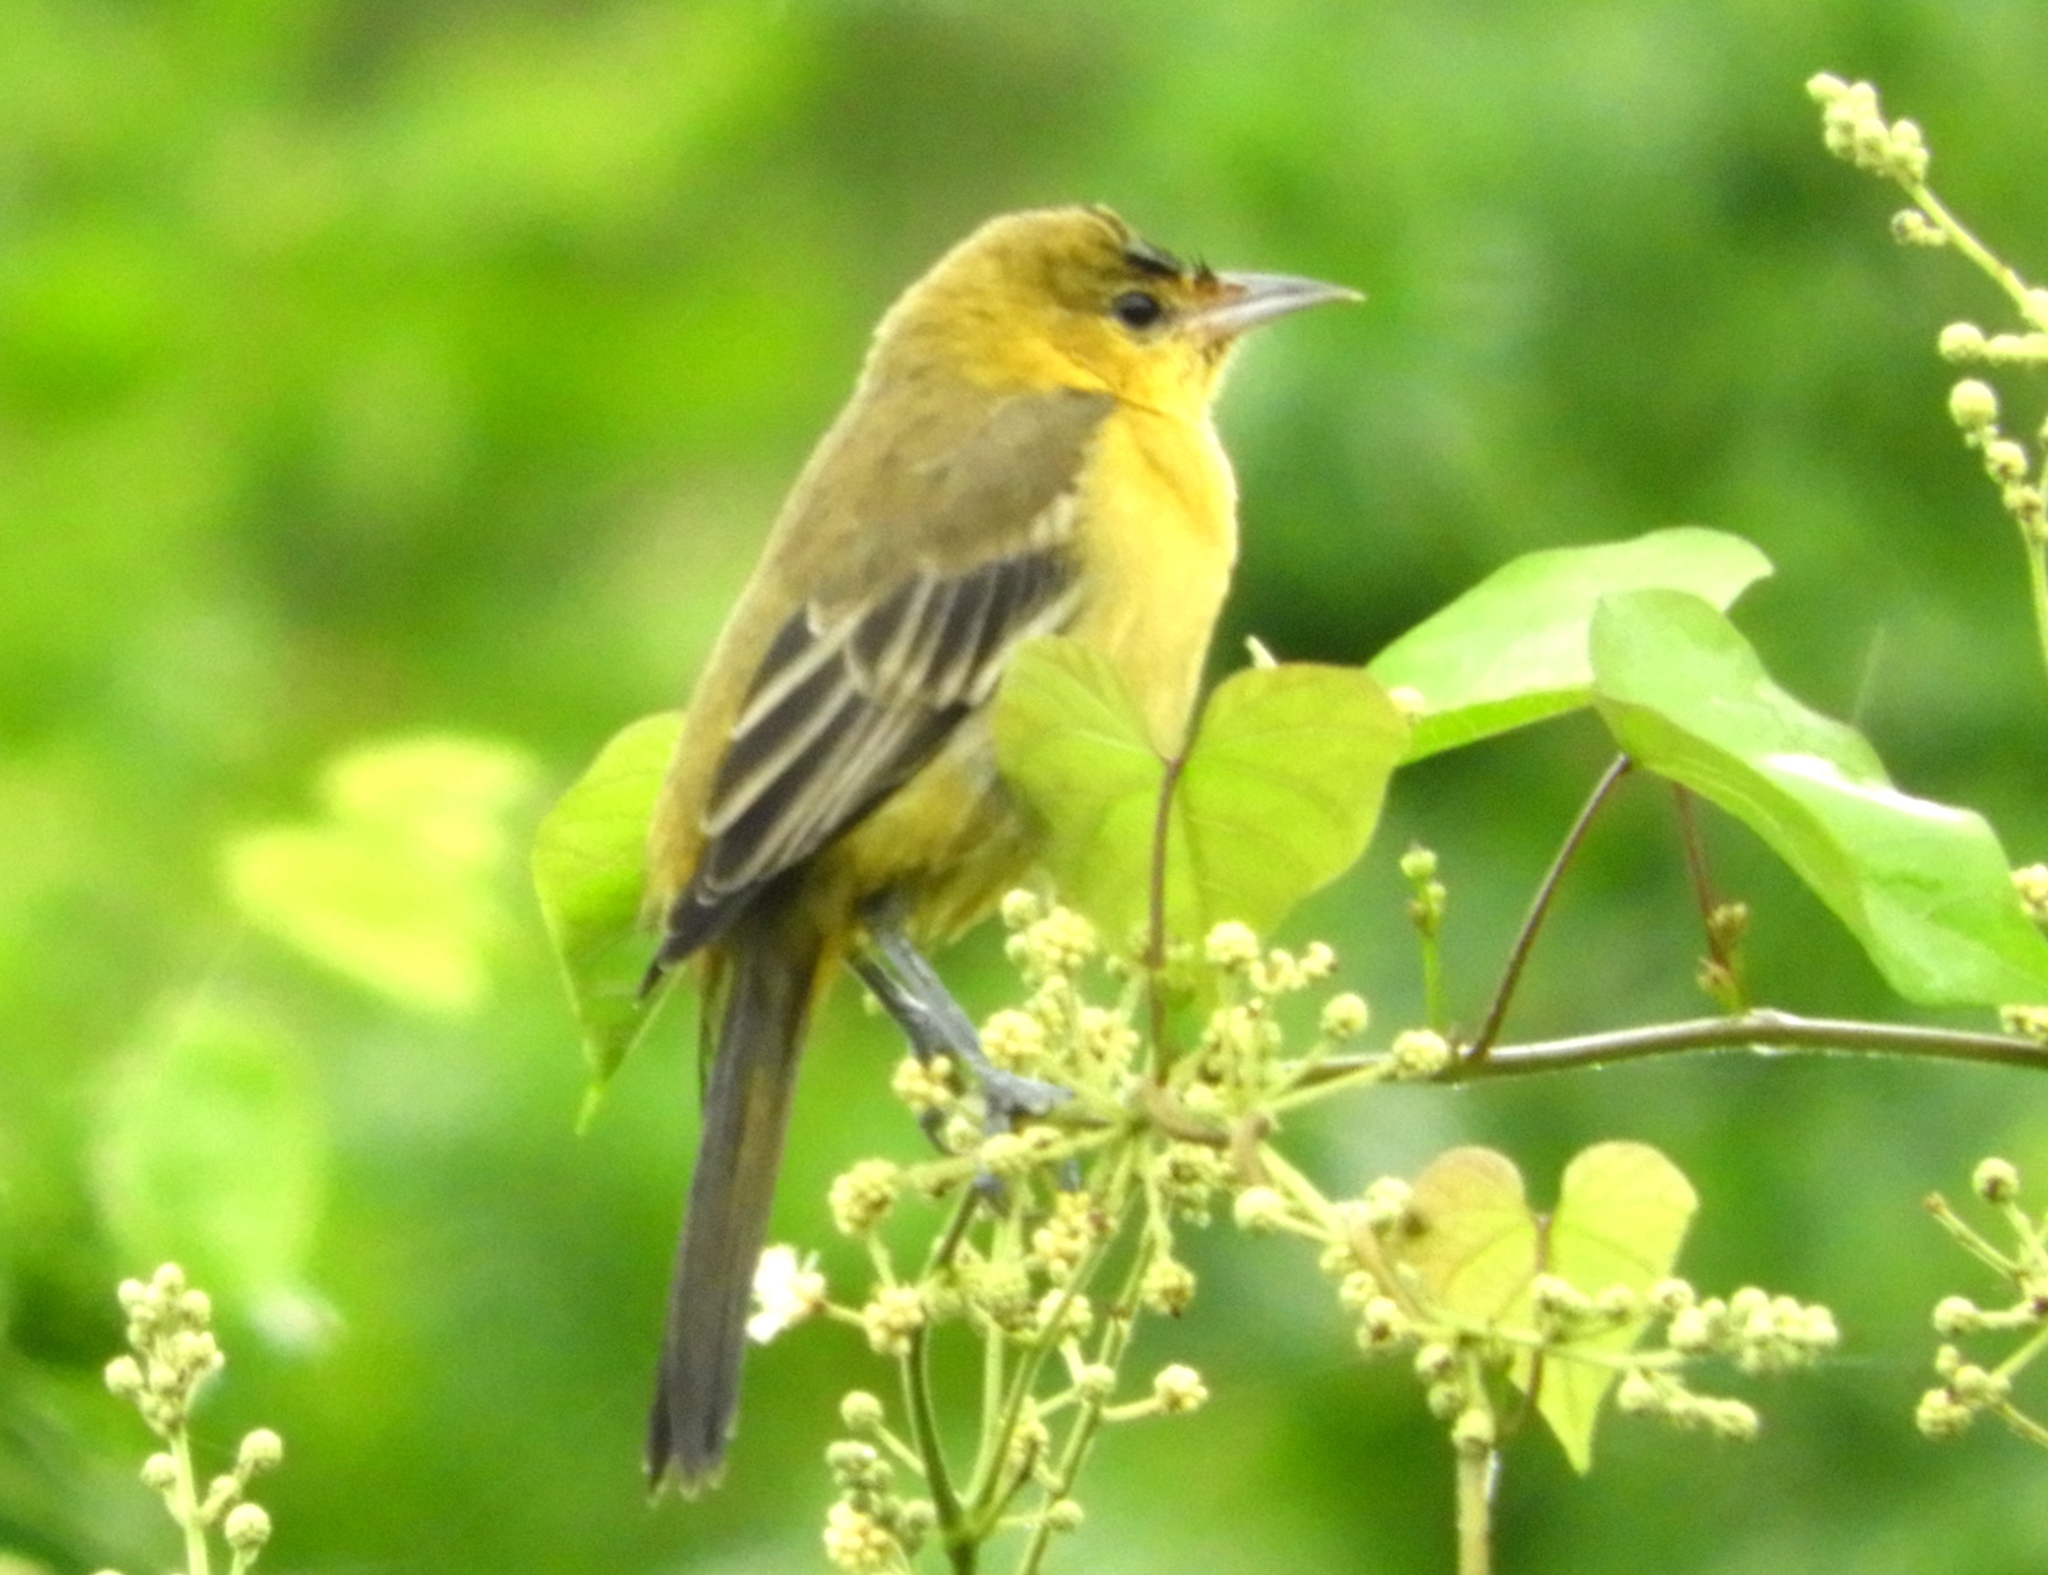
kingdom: Animalia
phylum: Chordata
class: Aves
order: Passeriformes
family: Icteridae
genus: Icterus
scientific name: Icterus spurius
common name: Orchard oriole
